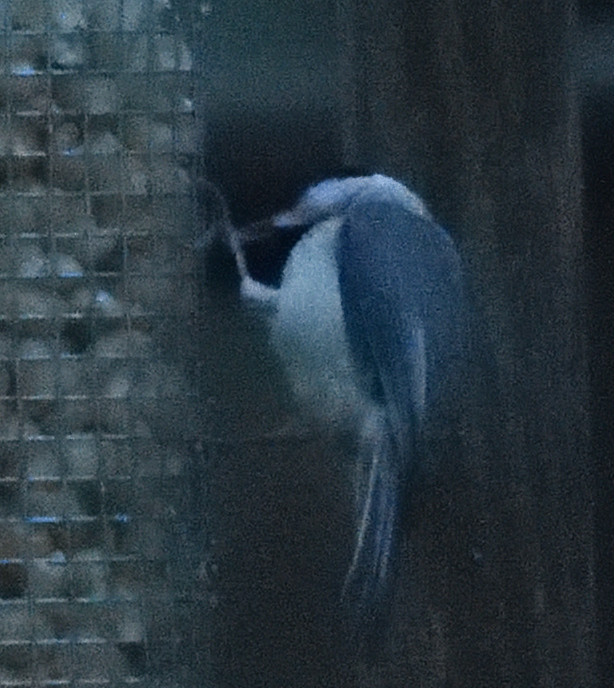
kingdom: Animalia
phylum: Chordata
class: Aves
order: Passeriformes
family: Paridae
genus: Poecile
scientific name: Poecile carolinensis
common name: Carolina chickadee
